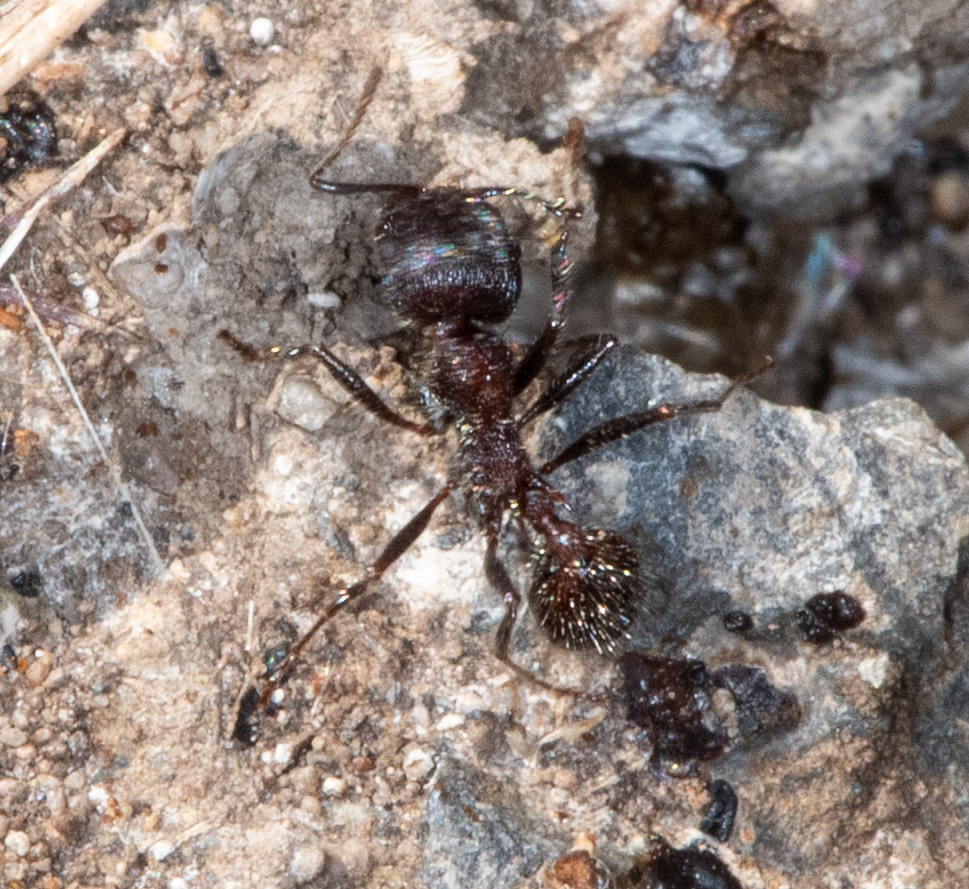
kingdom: Animalia
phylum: Arthropoda
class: Insecta
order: Hymenoptera
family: Formicidae
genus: Veromessor
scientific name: Veromessor andrei
